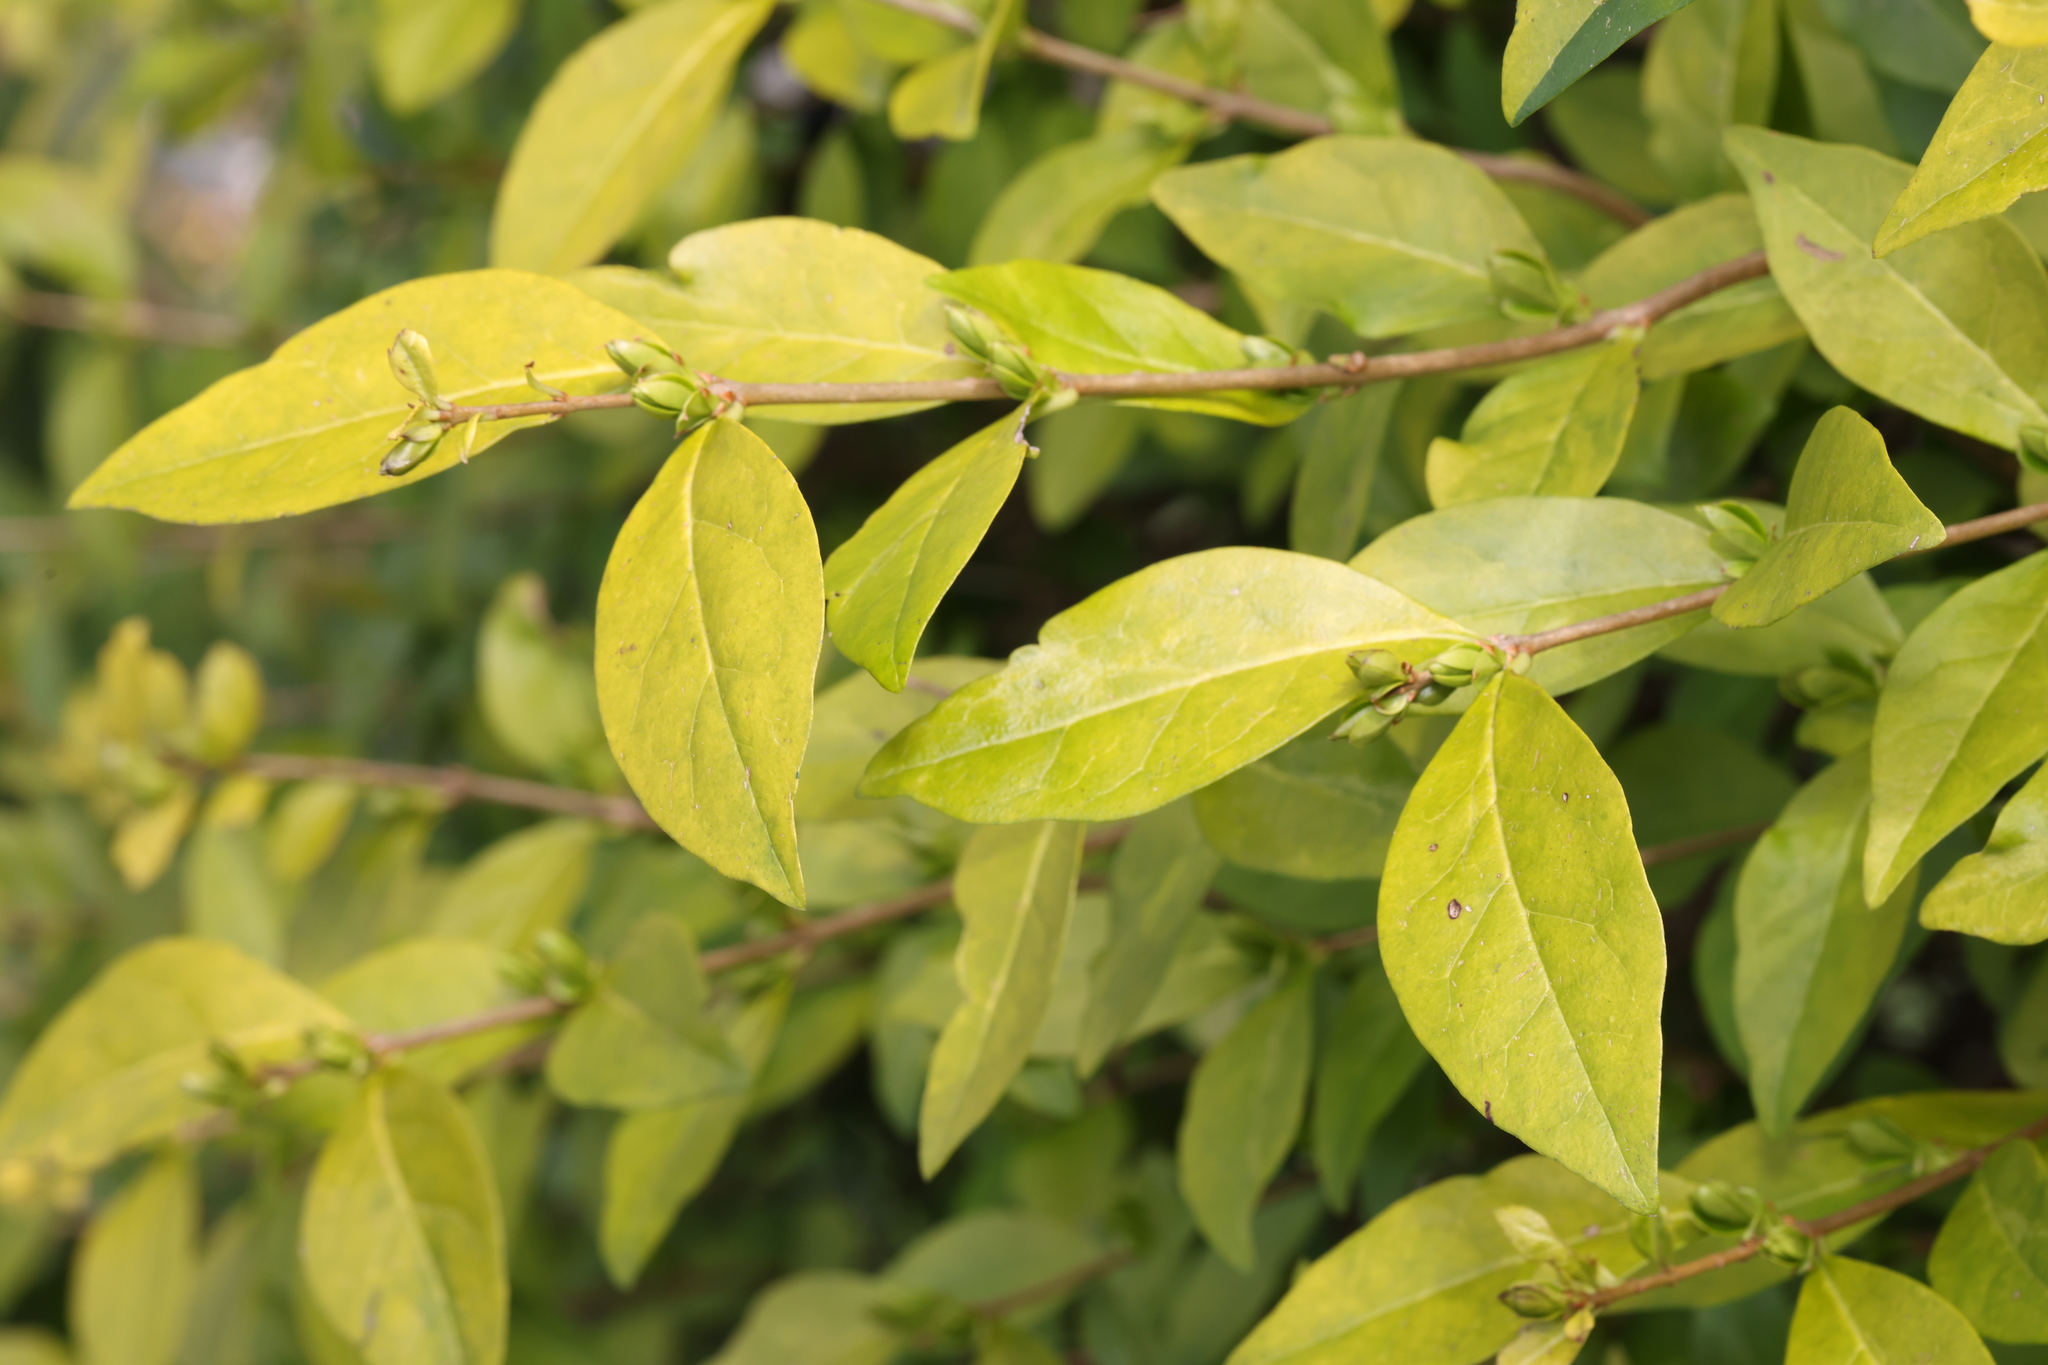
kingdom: Plantae
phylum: Tracheophyta
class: Magnoliopsida
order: Lamiales
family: Oleaceae
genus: Ligustrum
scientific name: Ligustrum ovalifolium
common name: California privet
